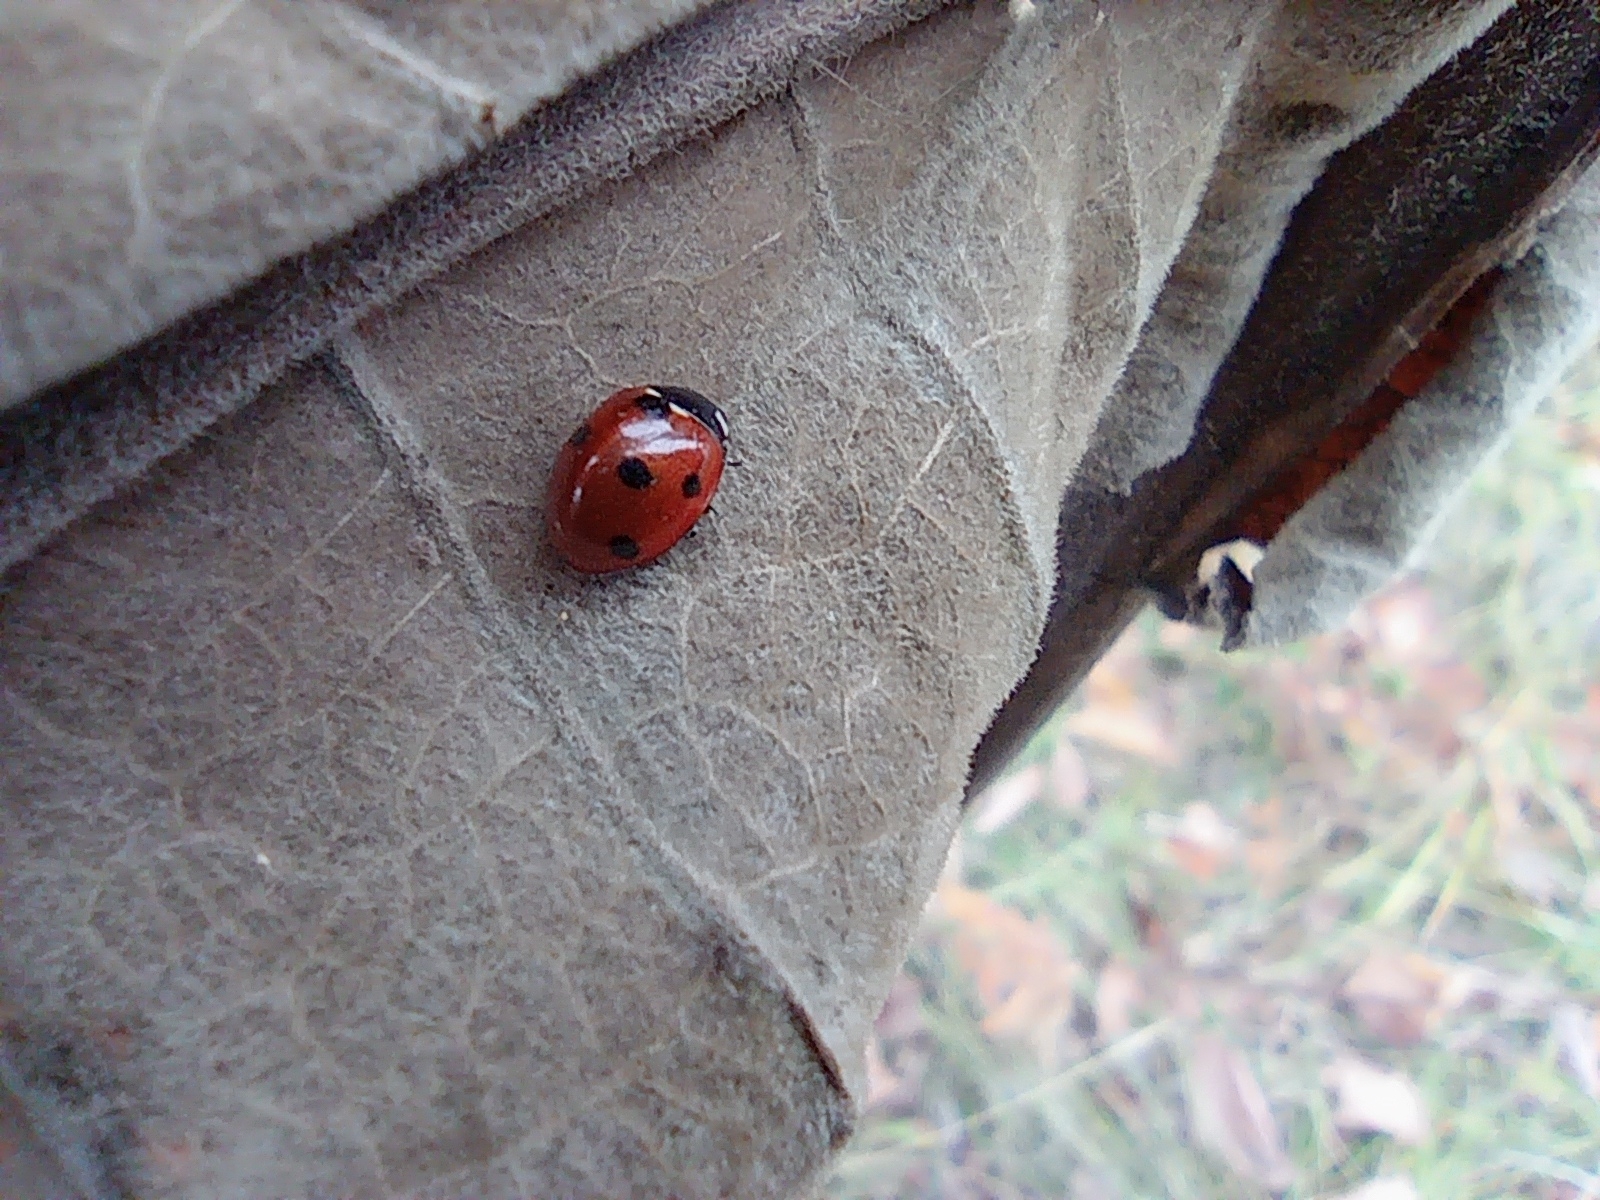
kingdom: Animalia
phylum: Arthropoda
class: Insecta
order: Coleoptera
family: Coccinellidae
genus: Coccinella
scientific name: Coccinella septempunctata
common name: Sevenspotted lady beetle
